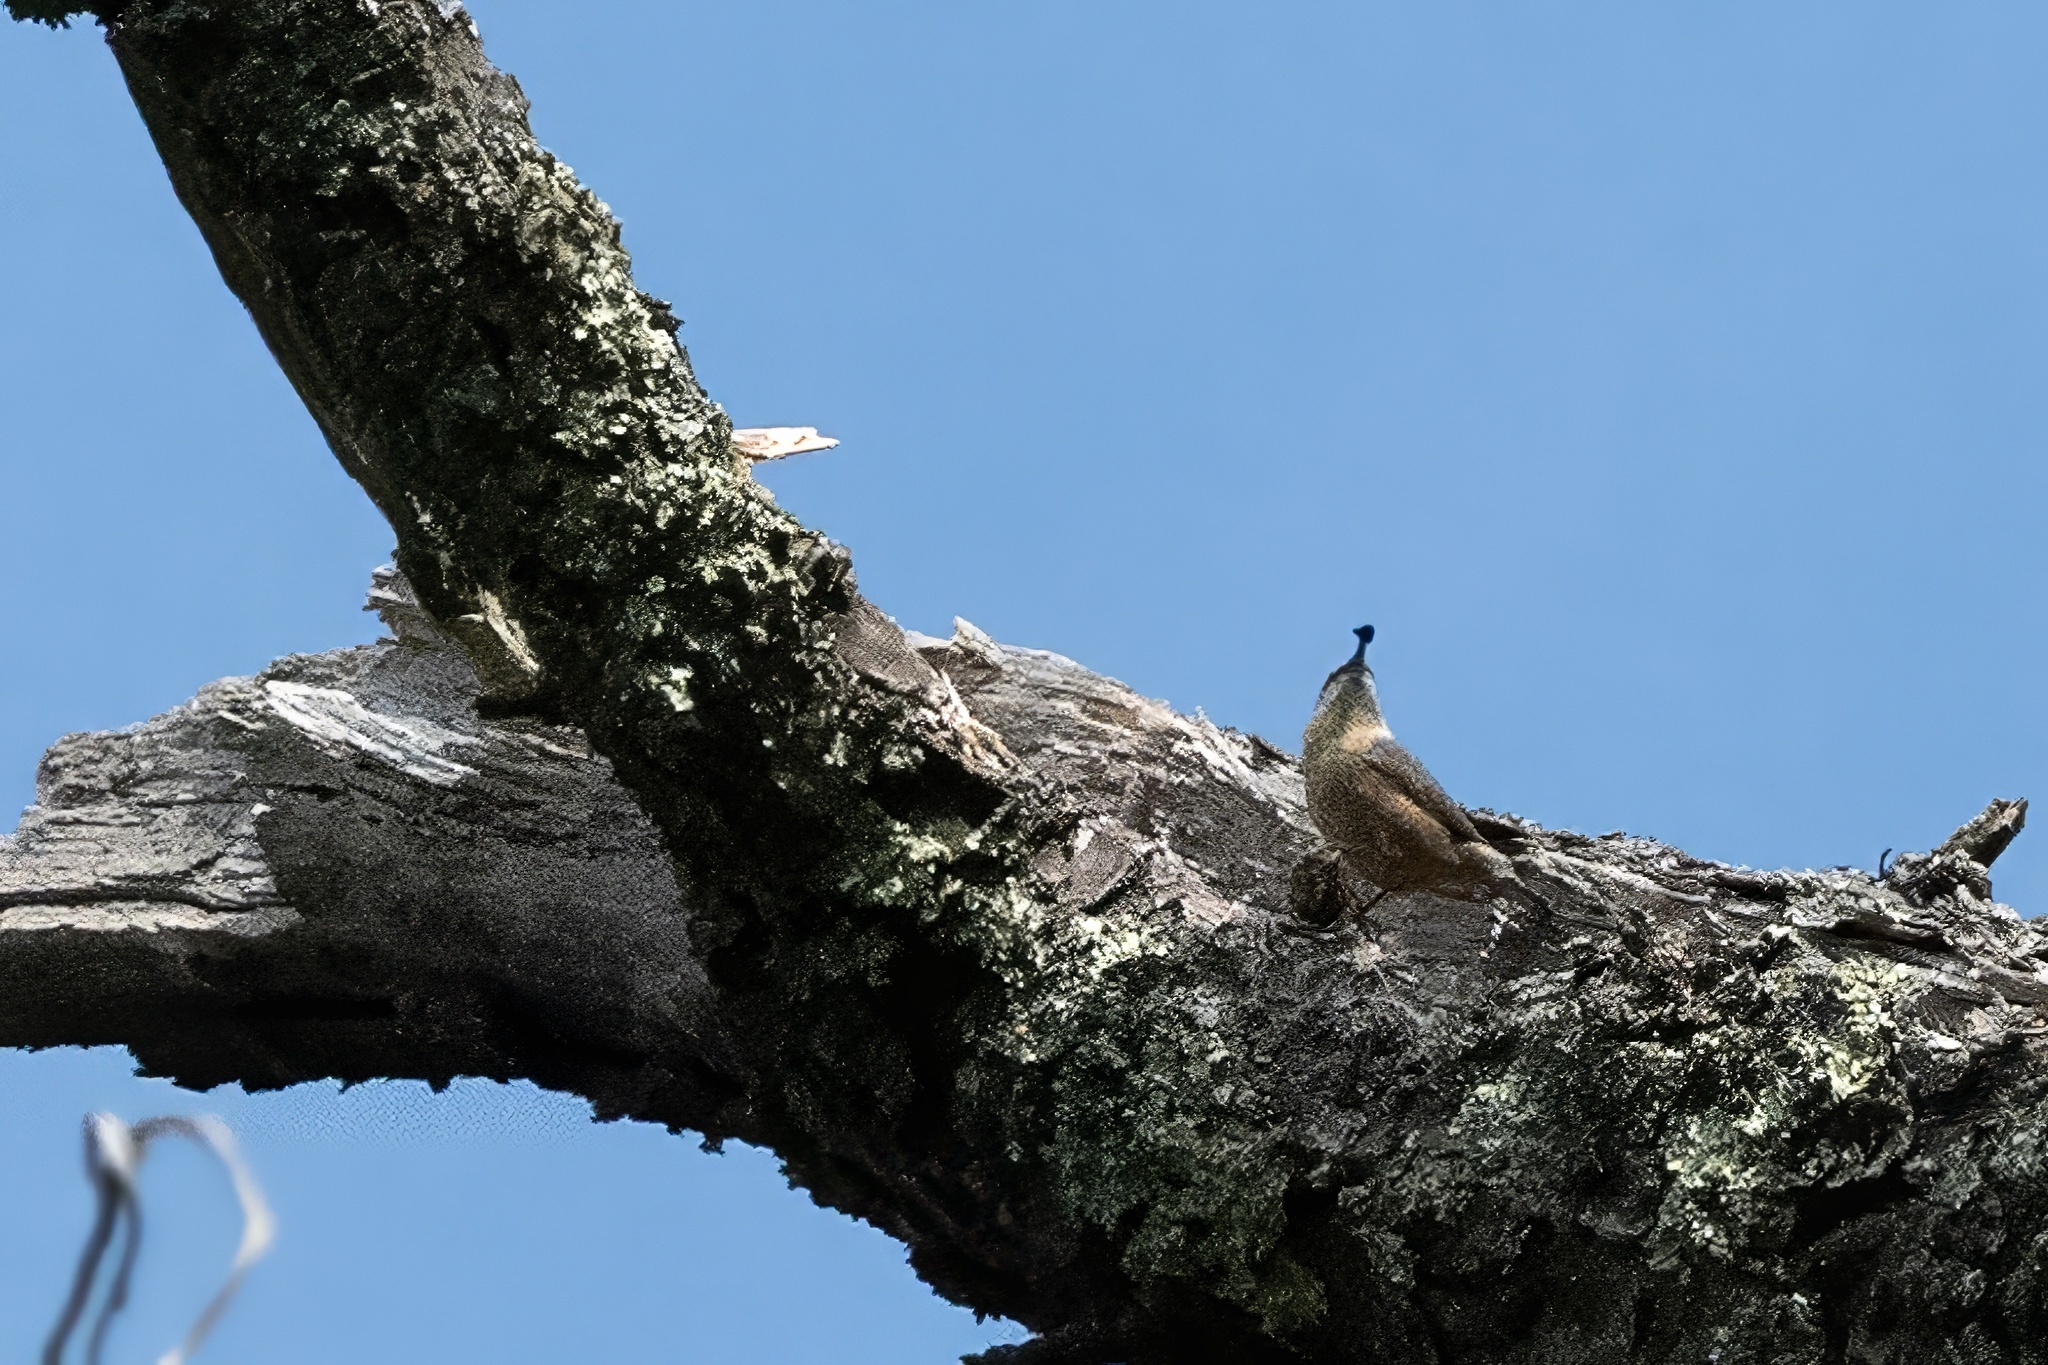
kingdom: Animalia
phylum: Chordata
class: Aves
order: Passeriformes
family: Sittidae
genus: Sitta
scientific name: Sitta canadensis
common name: Red-breasted nuthatch
